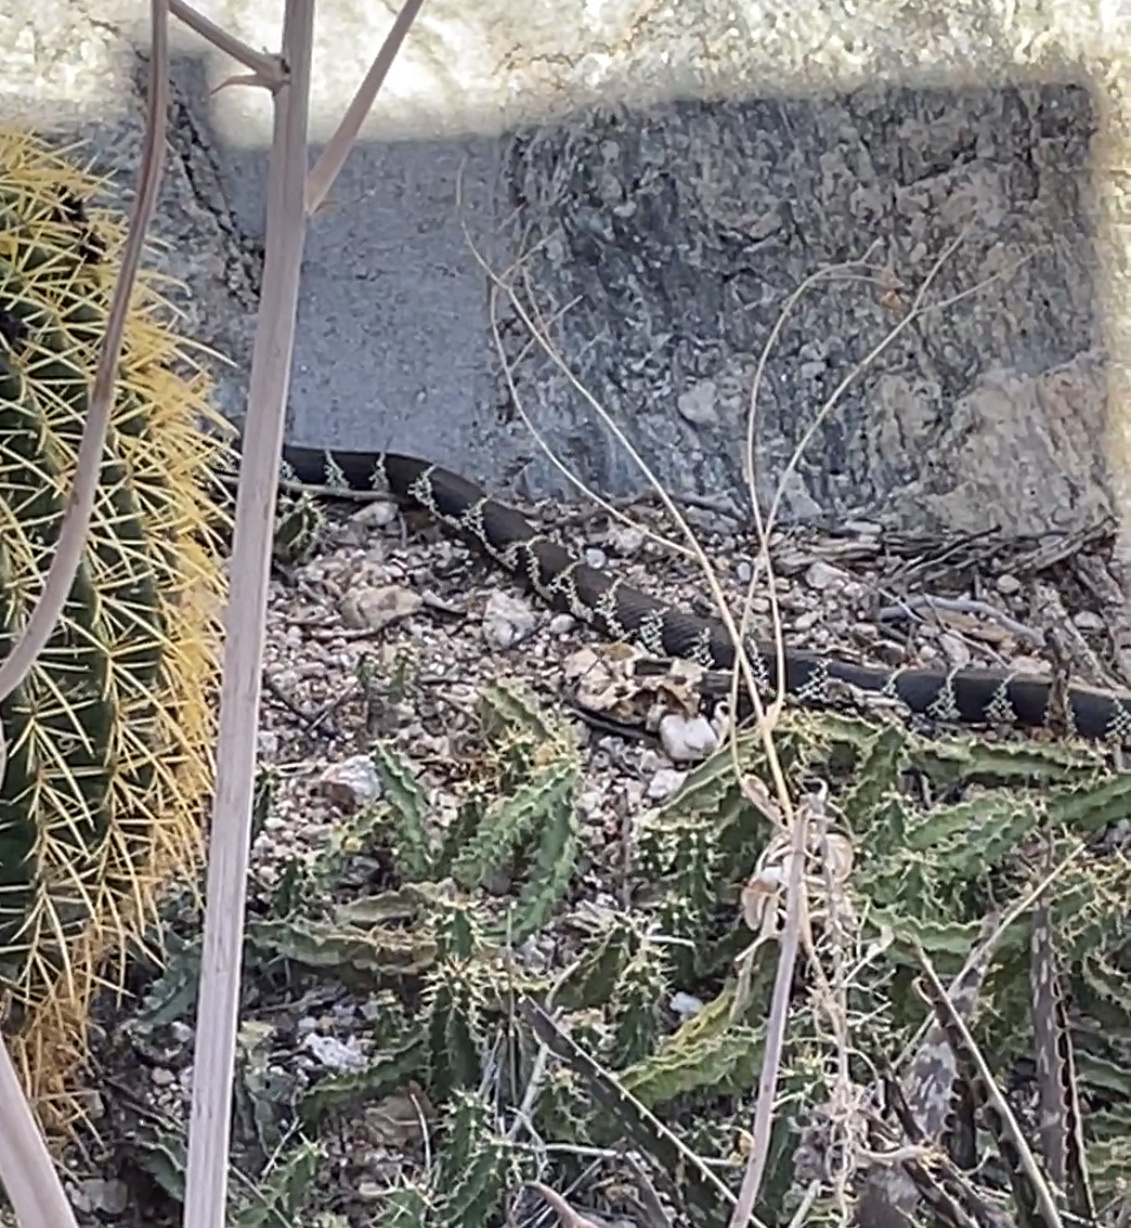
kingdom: Animalia
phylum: Chordata
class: Squamata
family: Colubridae
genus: Lampropeltis
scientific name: Lampropeltis
